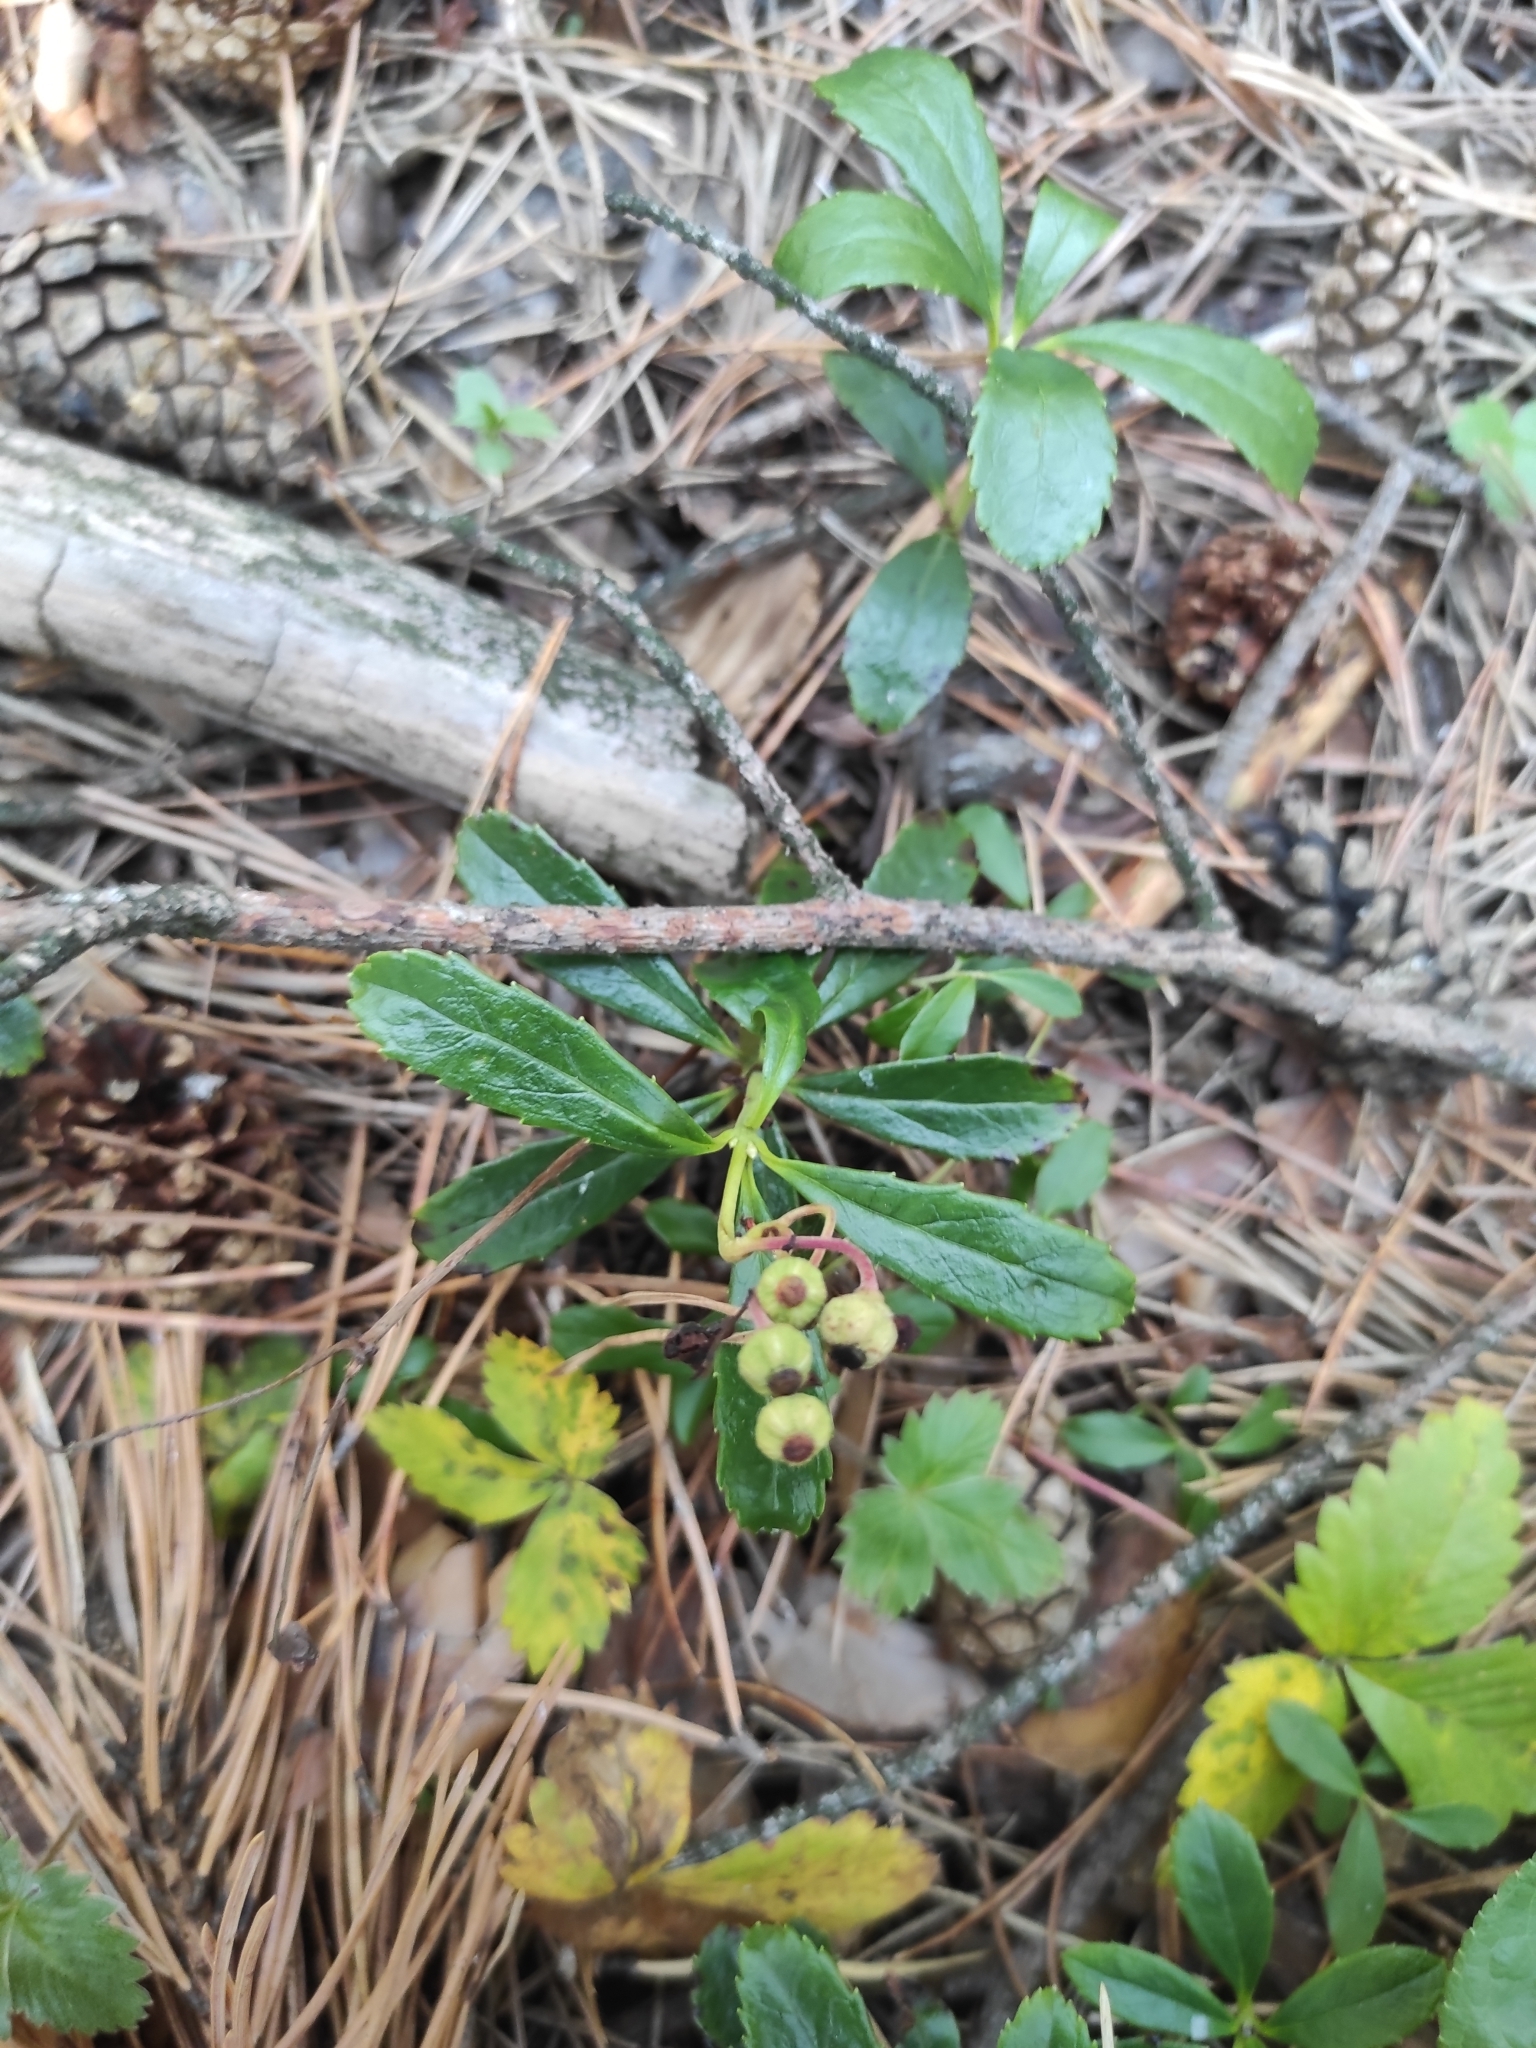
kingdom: Plantae
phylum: Tracheophyta
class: Magnoliopsida
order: Ericales
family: Ericaceae
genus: Chimaphila
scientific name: Chimaphila umbellata
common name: Pipsissewa
